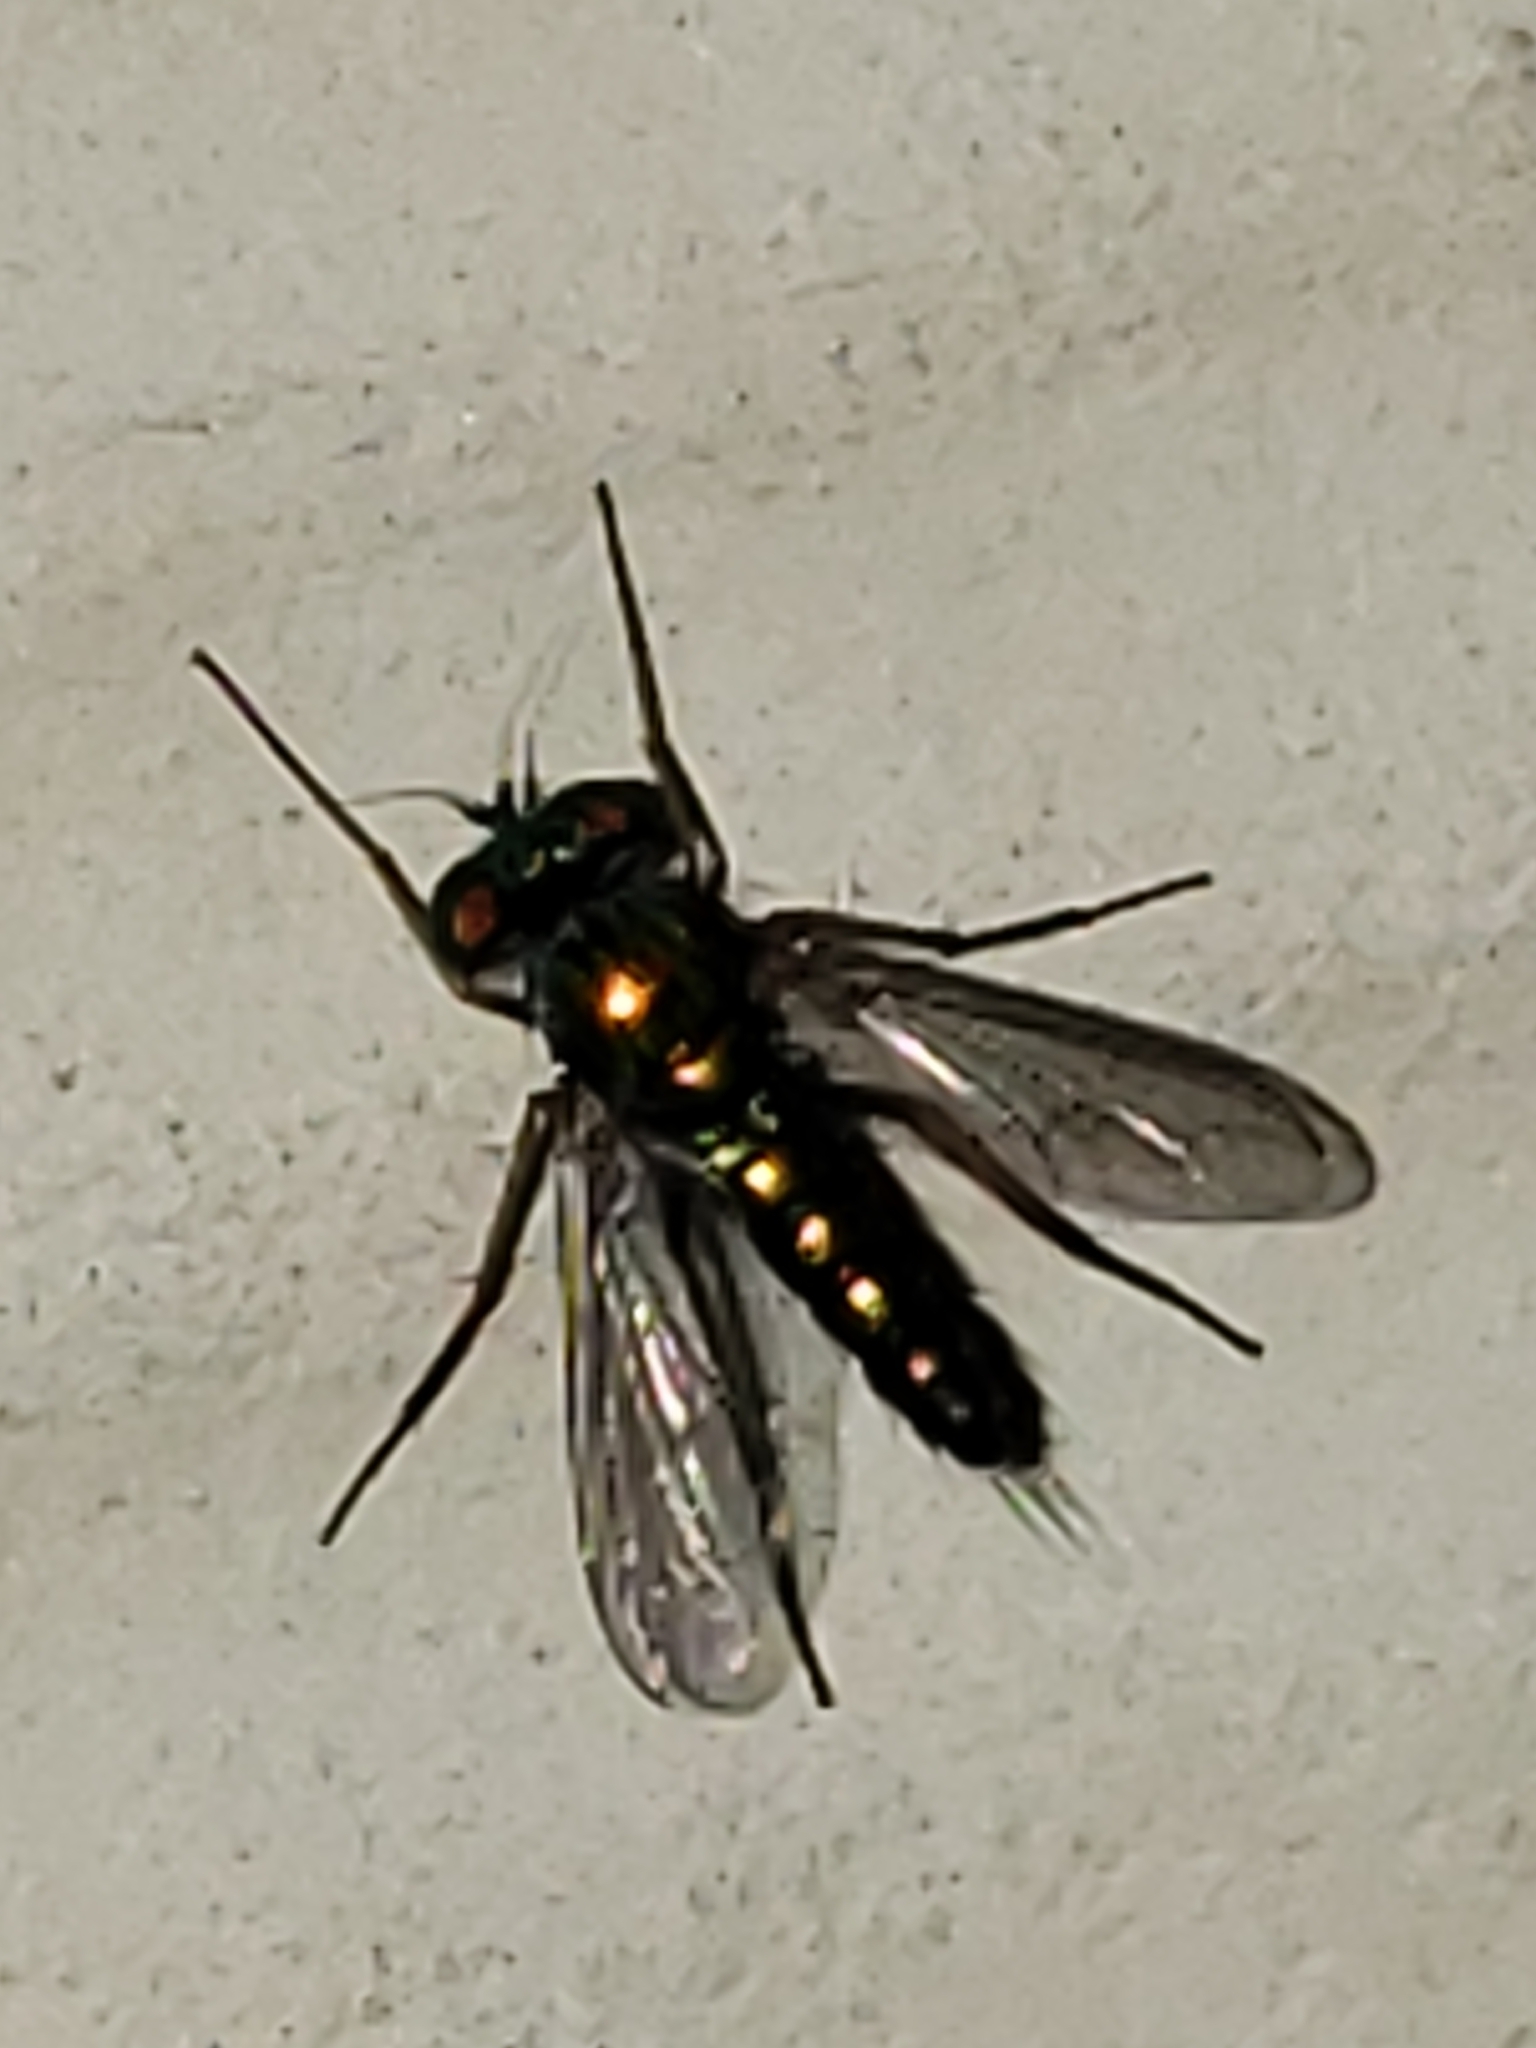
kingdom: Animalia
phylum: Arthropoda
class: Insecta
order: Diptera
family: Dolichopodidae
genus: Condylostylus
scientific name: Condylostylus caudatus
